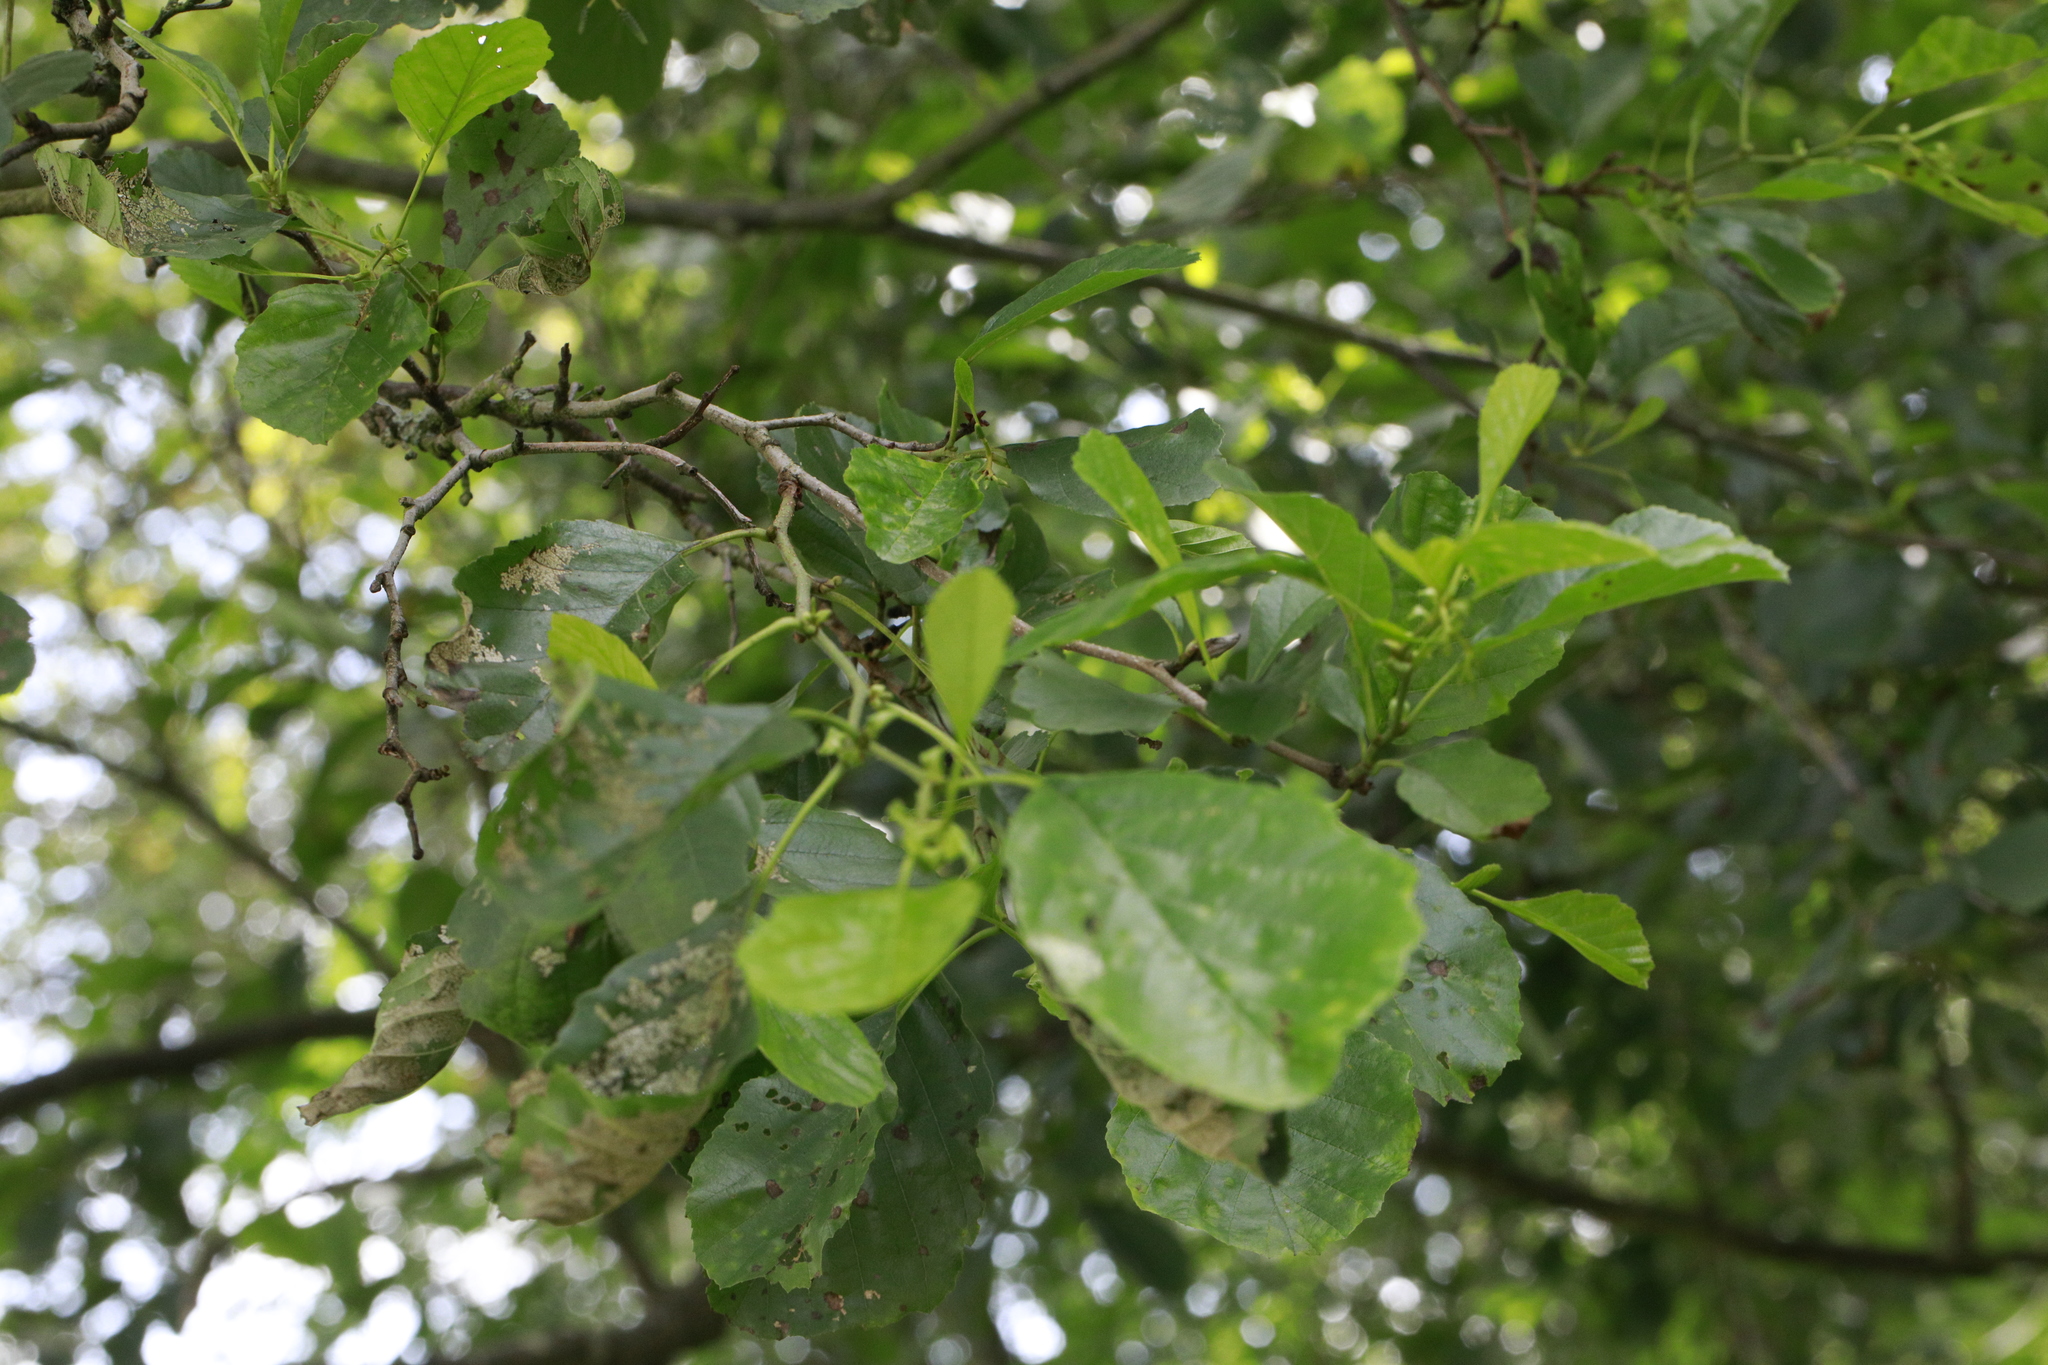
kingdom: Plantae
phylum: Tracheophyta
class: Magnoliopsida
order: Fagales
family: Betulaceae
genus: Alnus
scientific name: Alnus glutinosa
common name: Black alder
